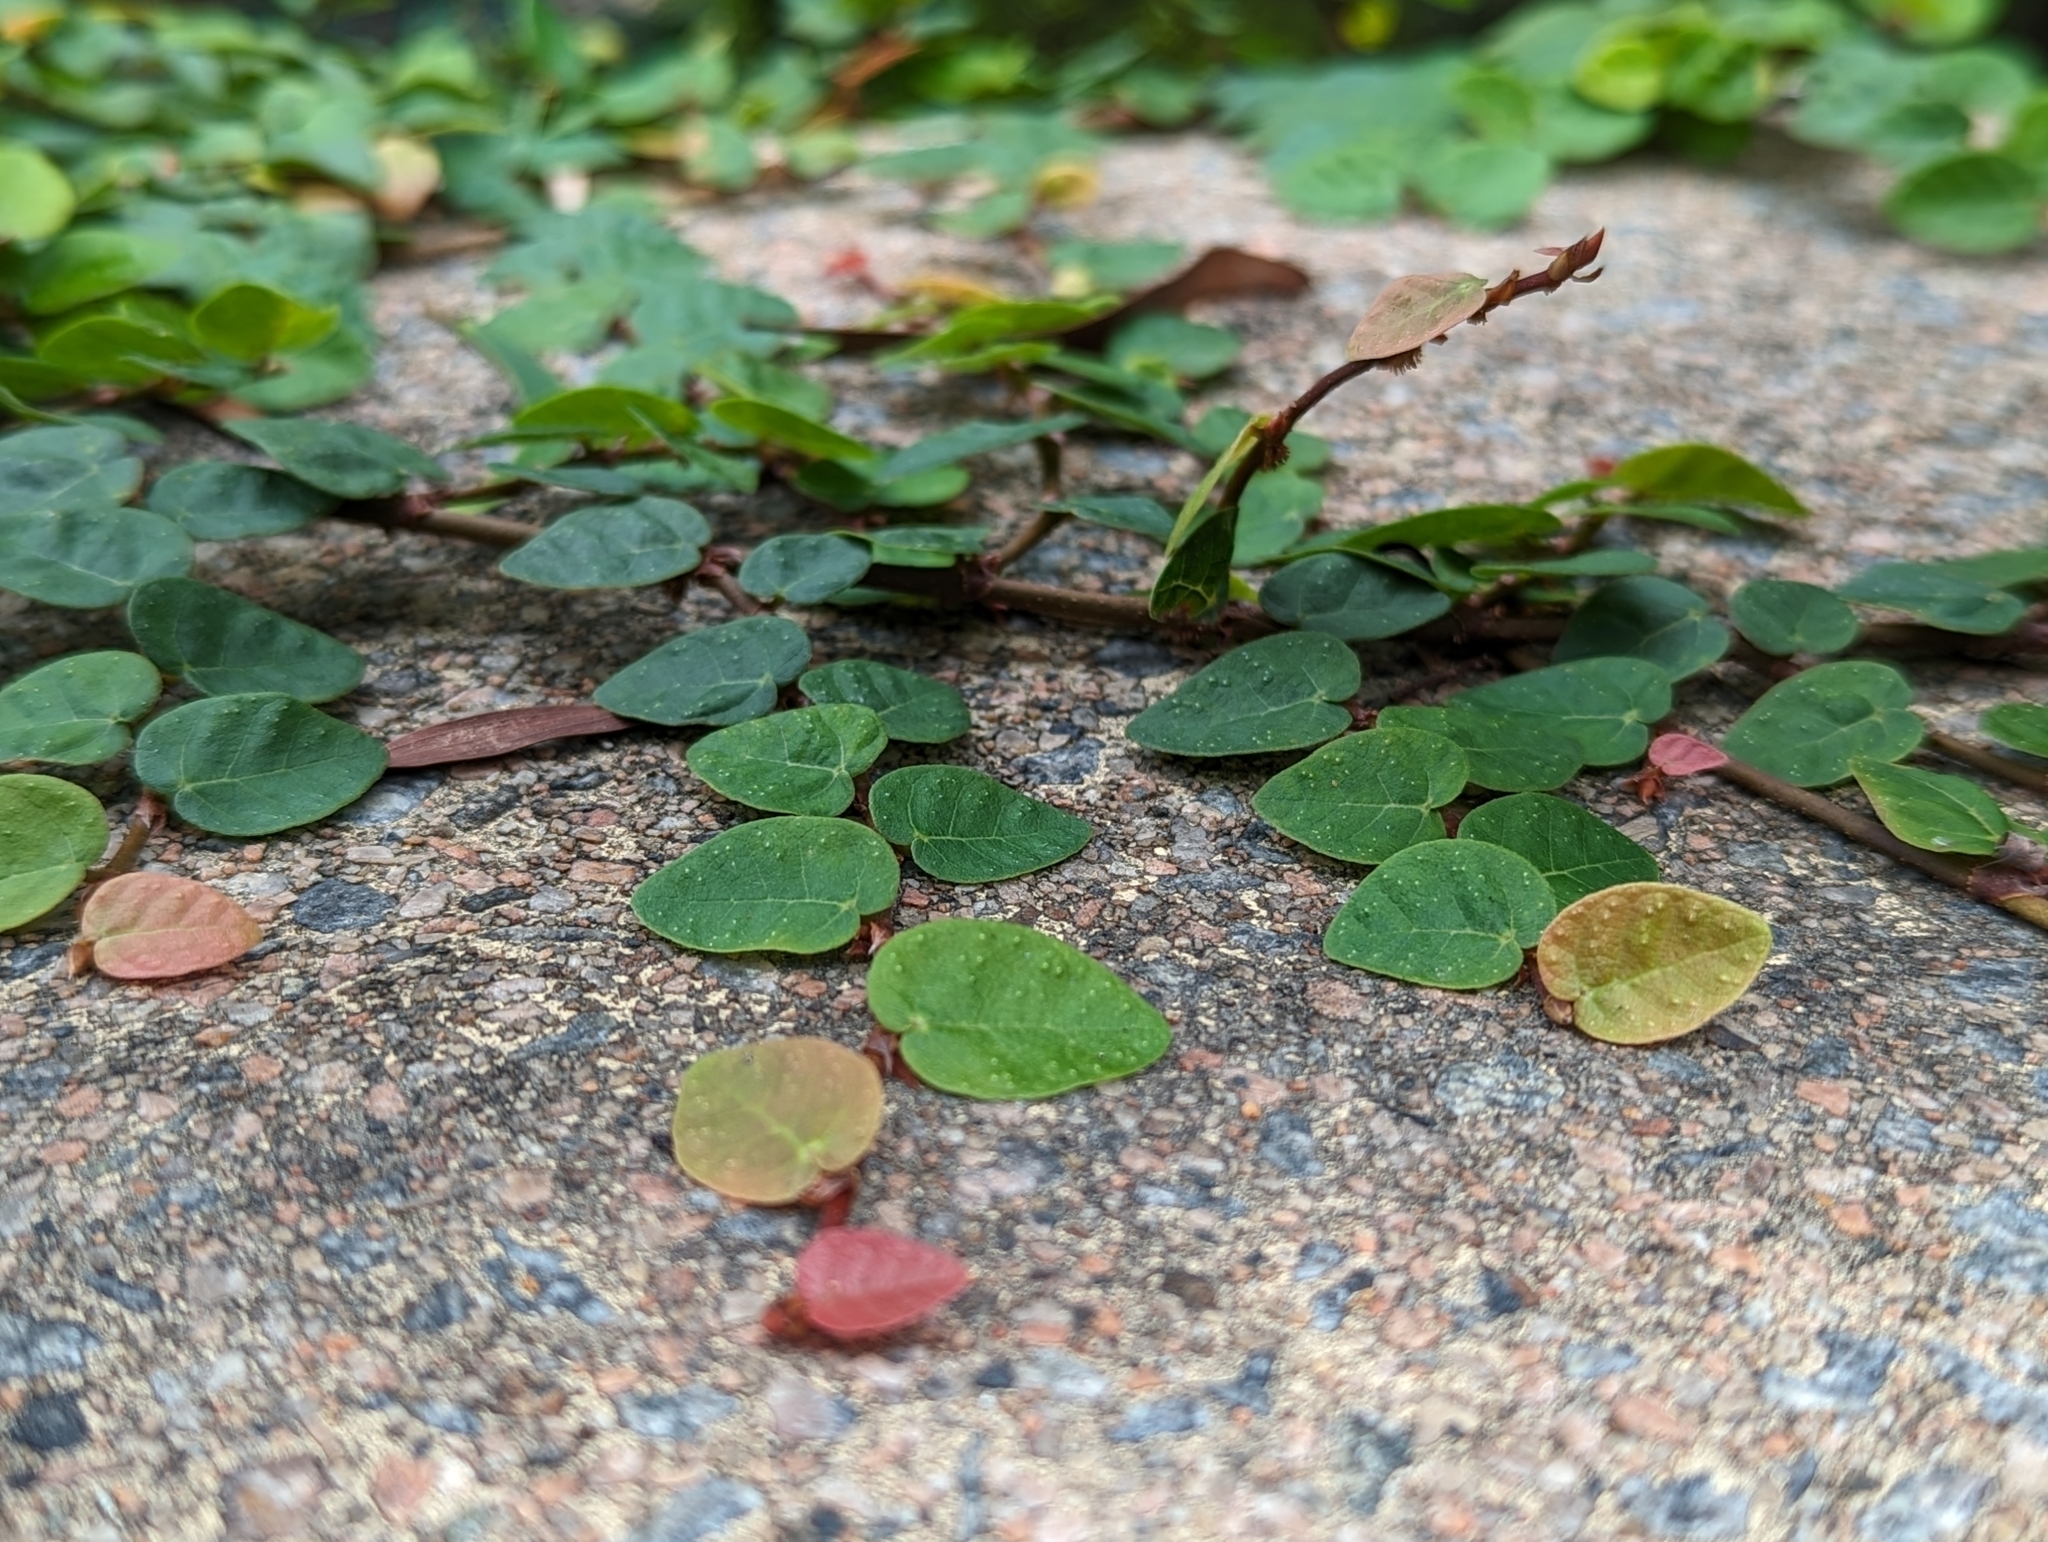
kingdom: Plantae
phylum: Tracheophyta
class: Magnoliopsida
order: Rosales
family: Moraceae
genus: Ficus
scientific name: Ficus pumila
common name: Climbingfig
